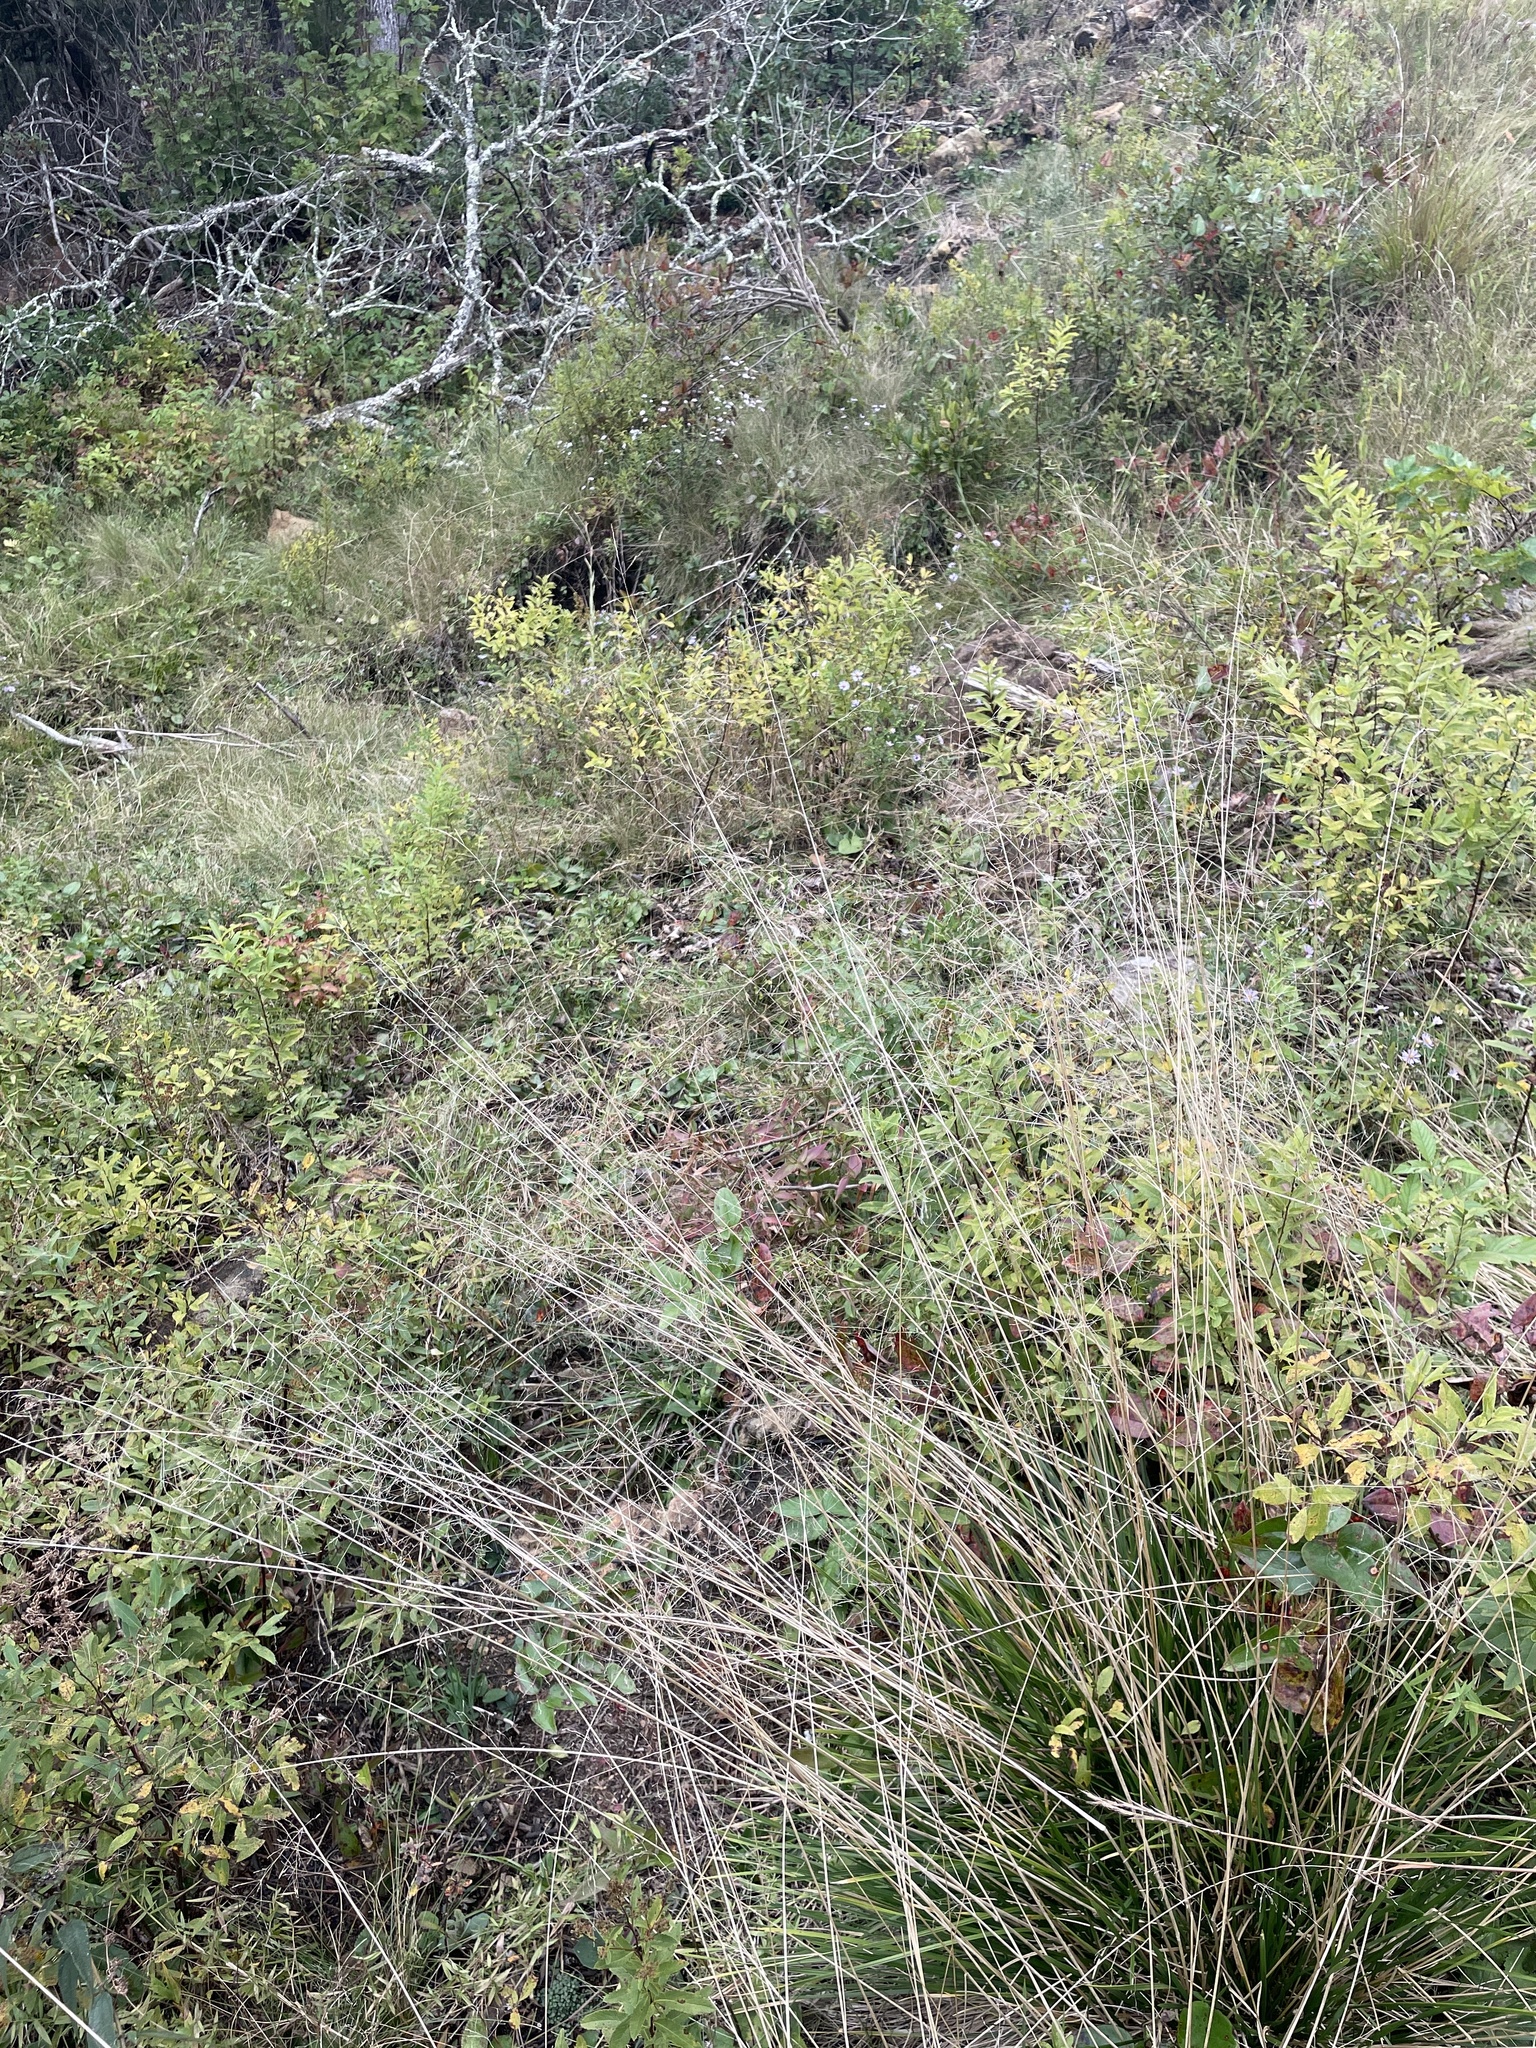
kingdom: Plantae
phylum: Tracheophyta
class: Liliopsida
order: Poales
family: Poaceae
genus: Sporobolus
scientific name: Sporobolus heterolepis
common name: Prairie dropseed
